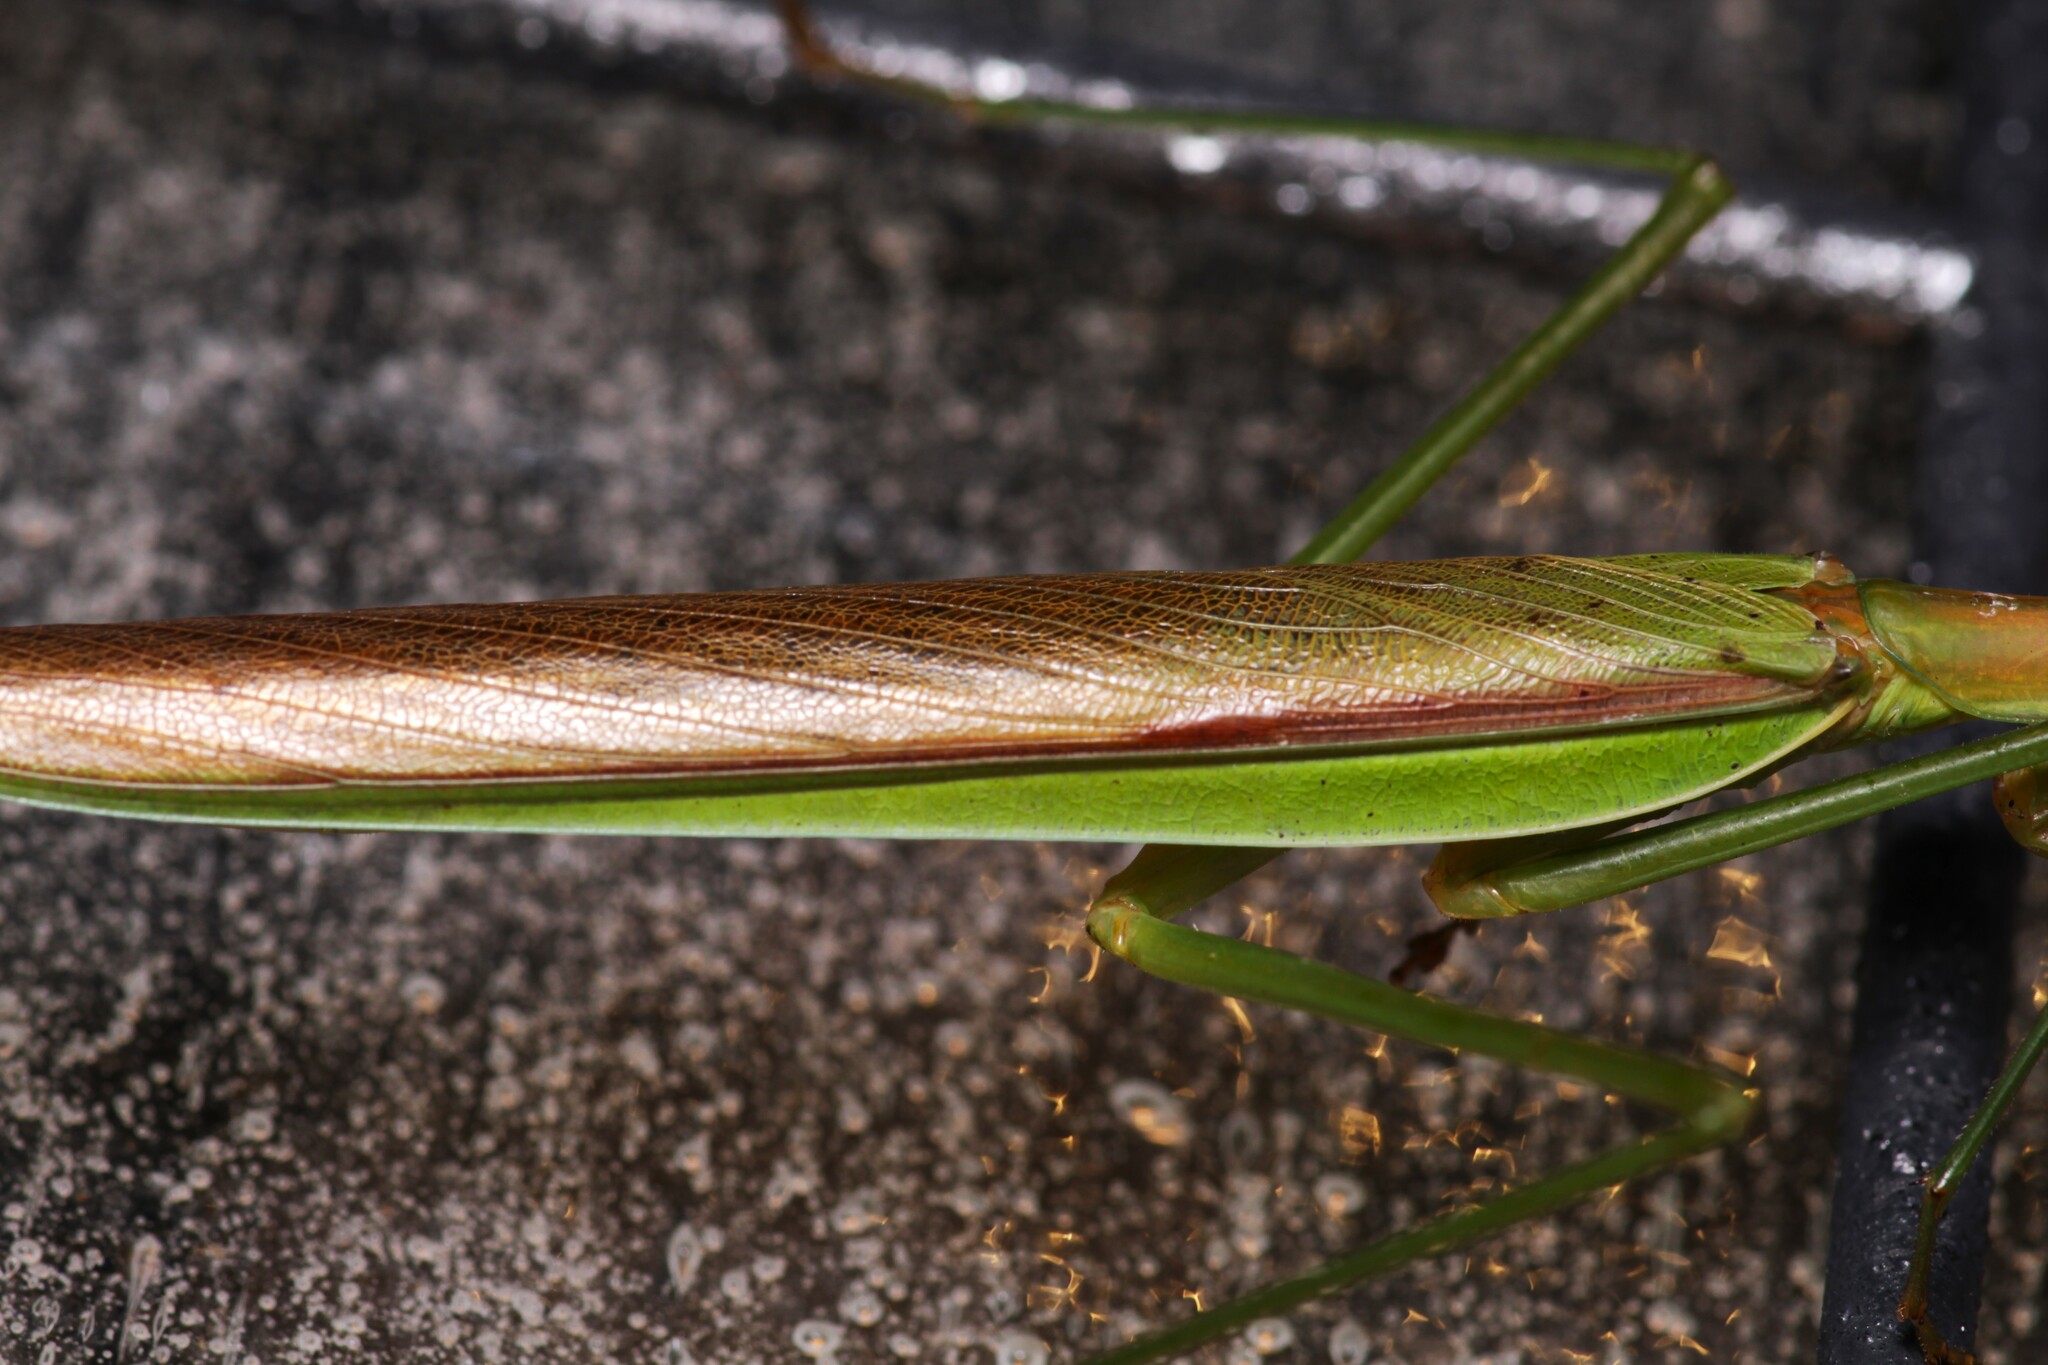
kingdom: Animalia
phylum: Arthropoda
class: Insecta
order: Mantodea
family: Mantidae
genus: Tenodera
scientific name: Tenodera sinensis
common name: Chinese mantis
